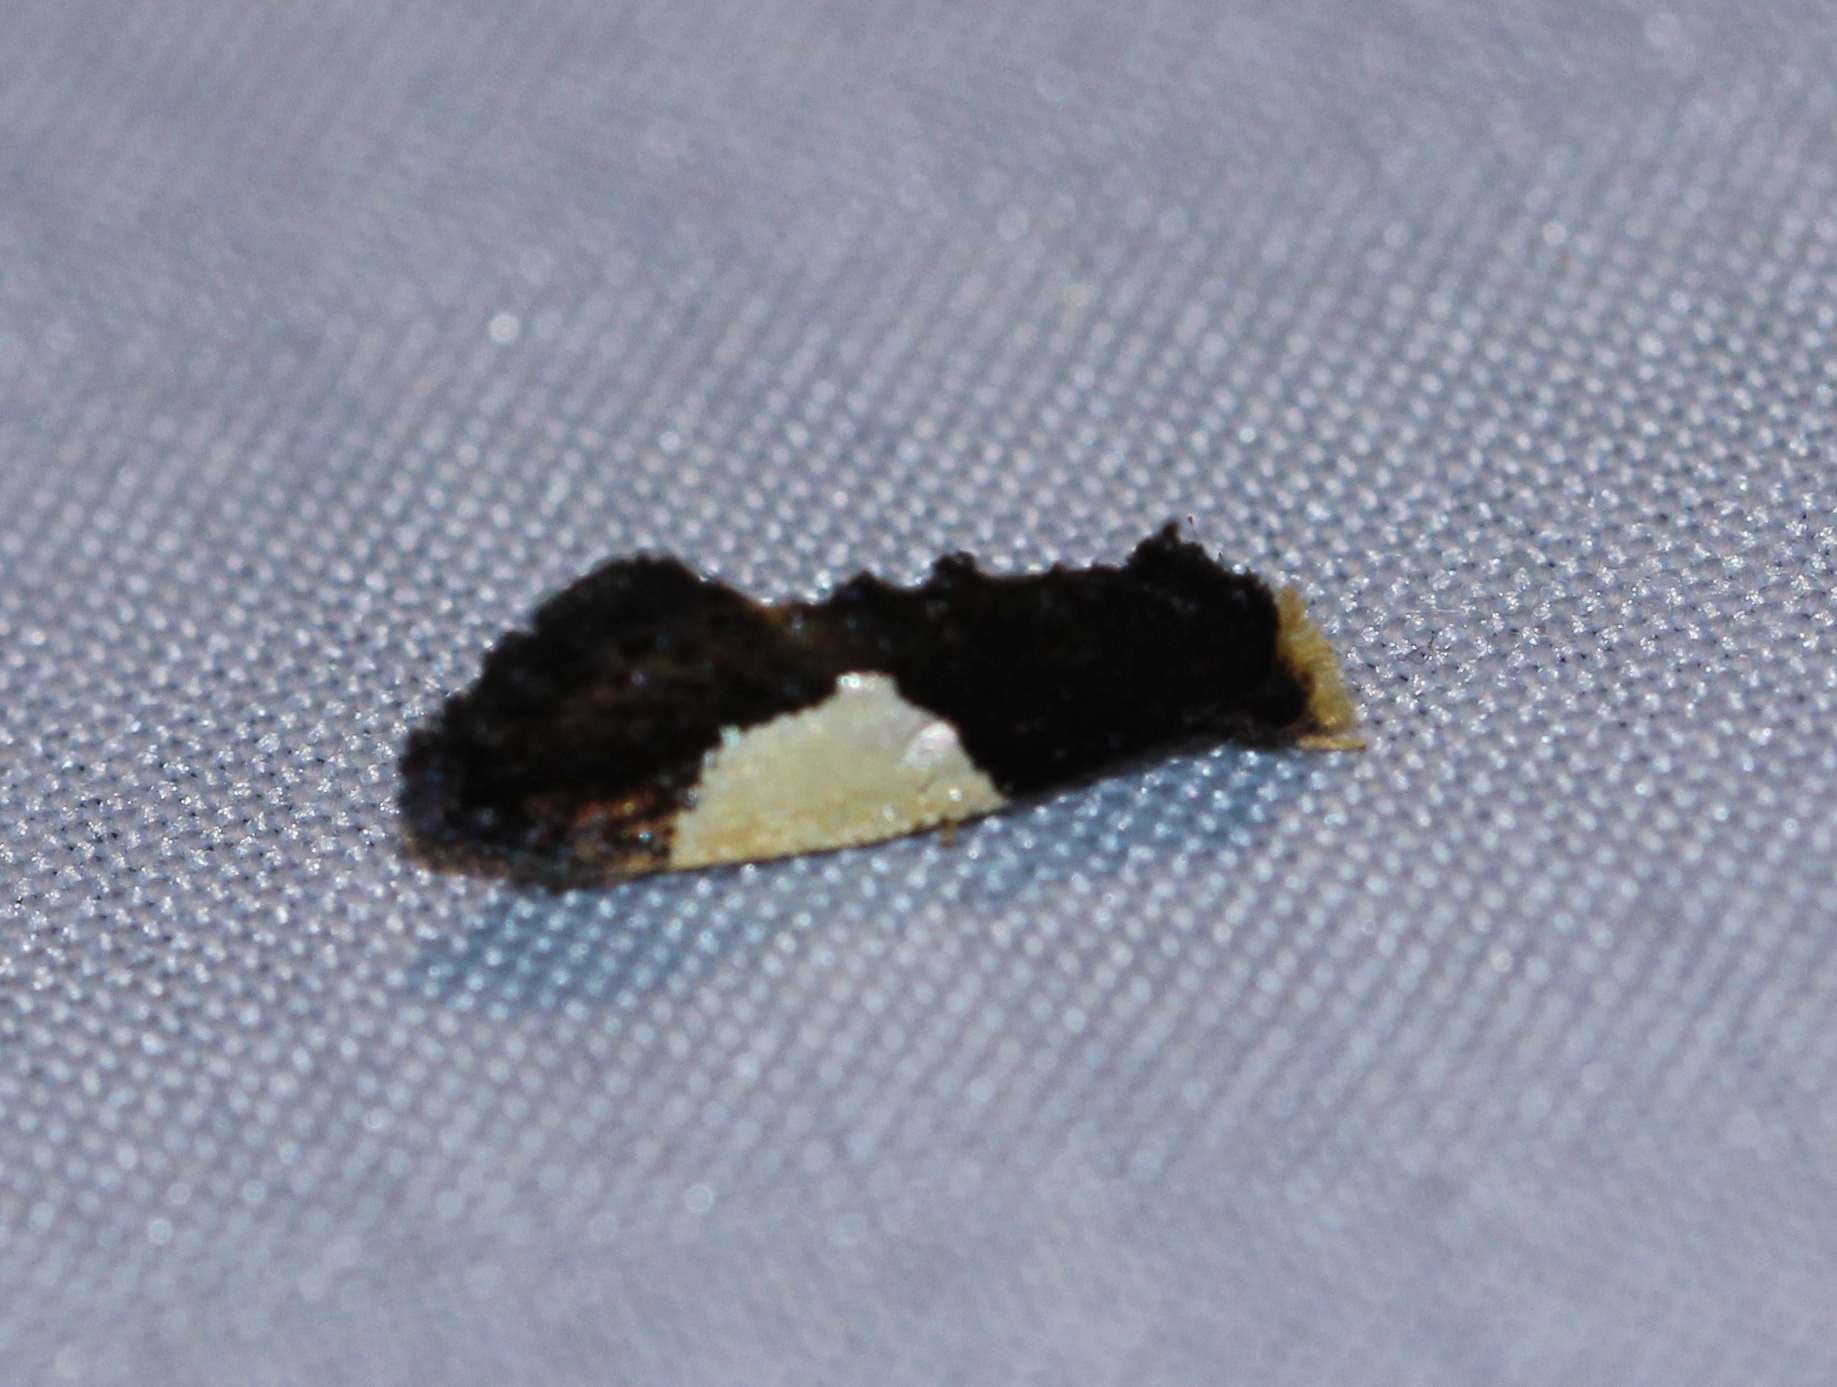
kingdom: Animalia
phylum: Arthropoda
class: Insecta
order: Lepidoptera
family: Tineidae
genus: Monopis
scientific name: Monopis monachella
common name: Moth
